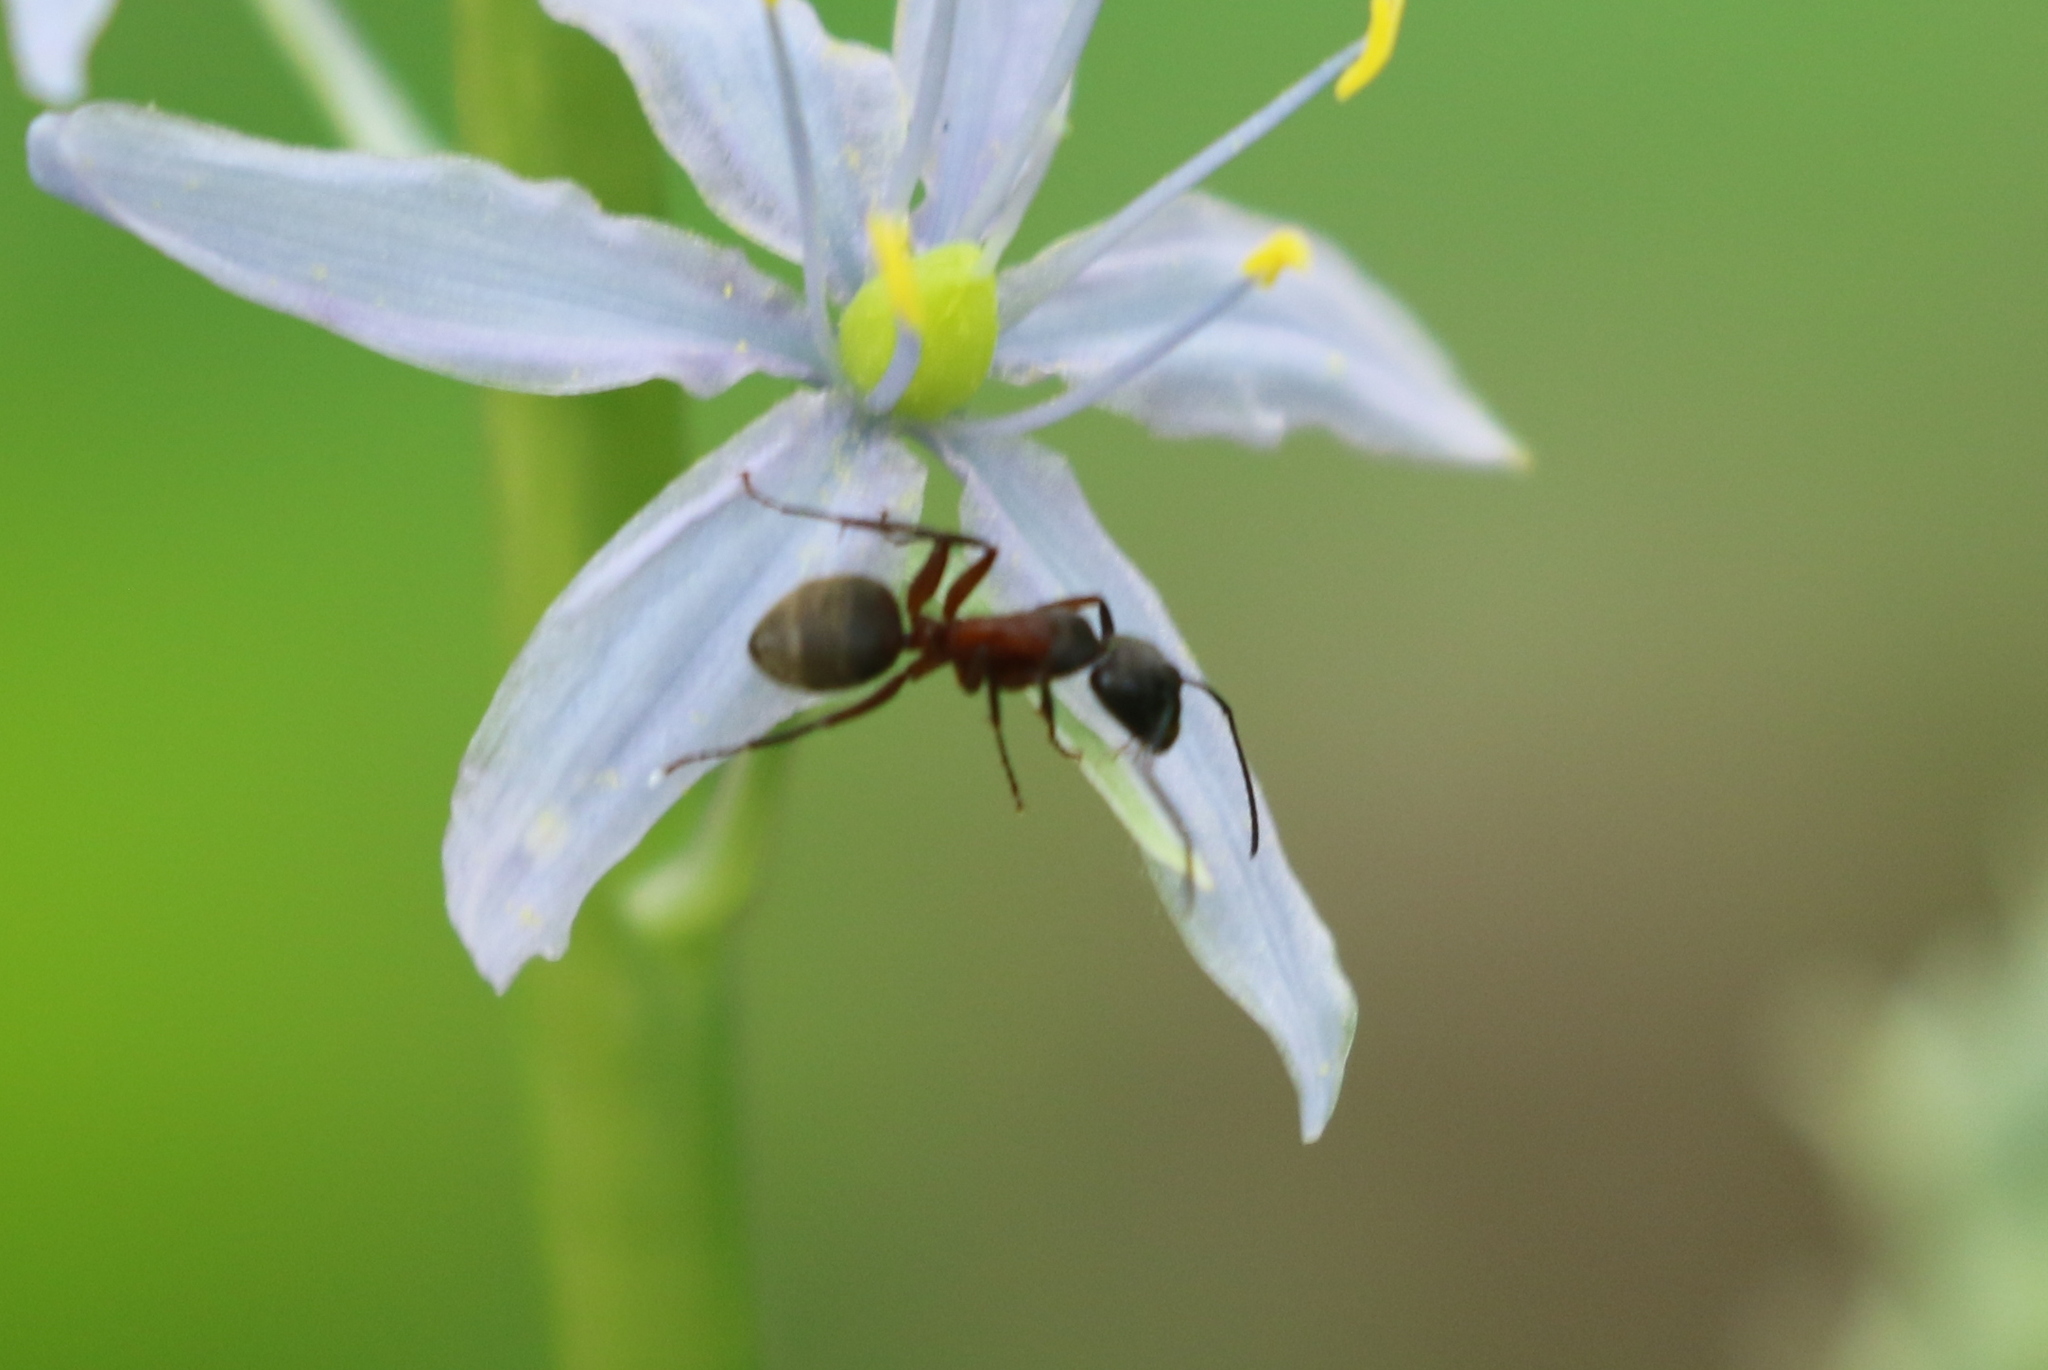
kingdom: Animalia
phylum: Arthropoda
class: Insecta
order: Hymenoptera
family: Formicidae
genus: Camponotus
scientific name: Camponotus chromaiodes
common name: Red carpenter ant
